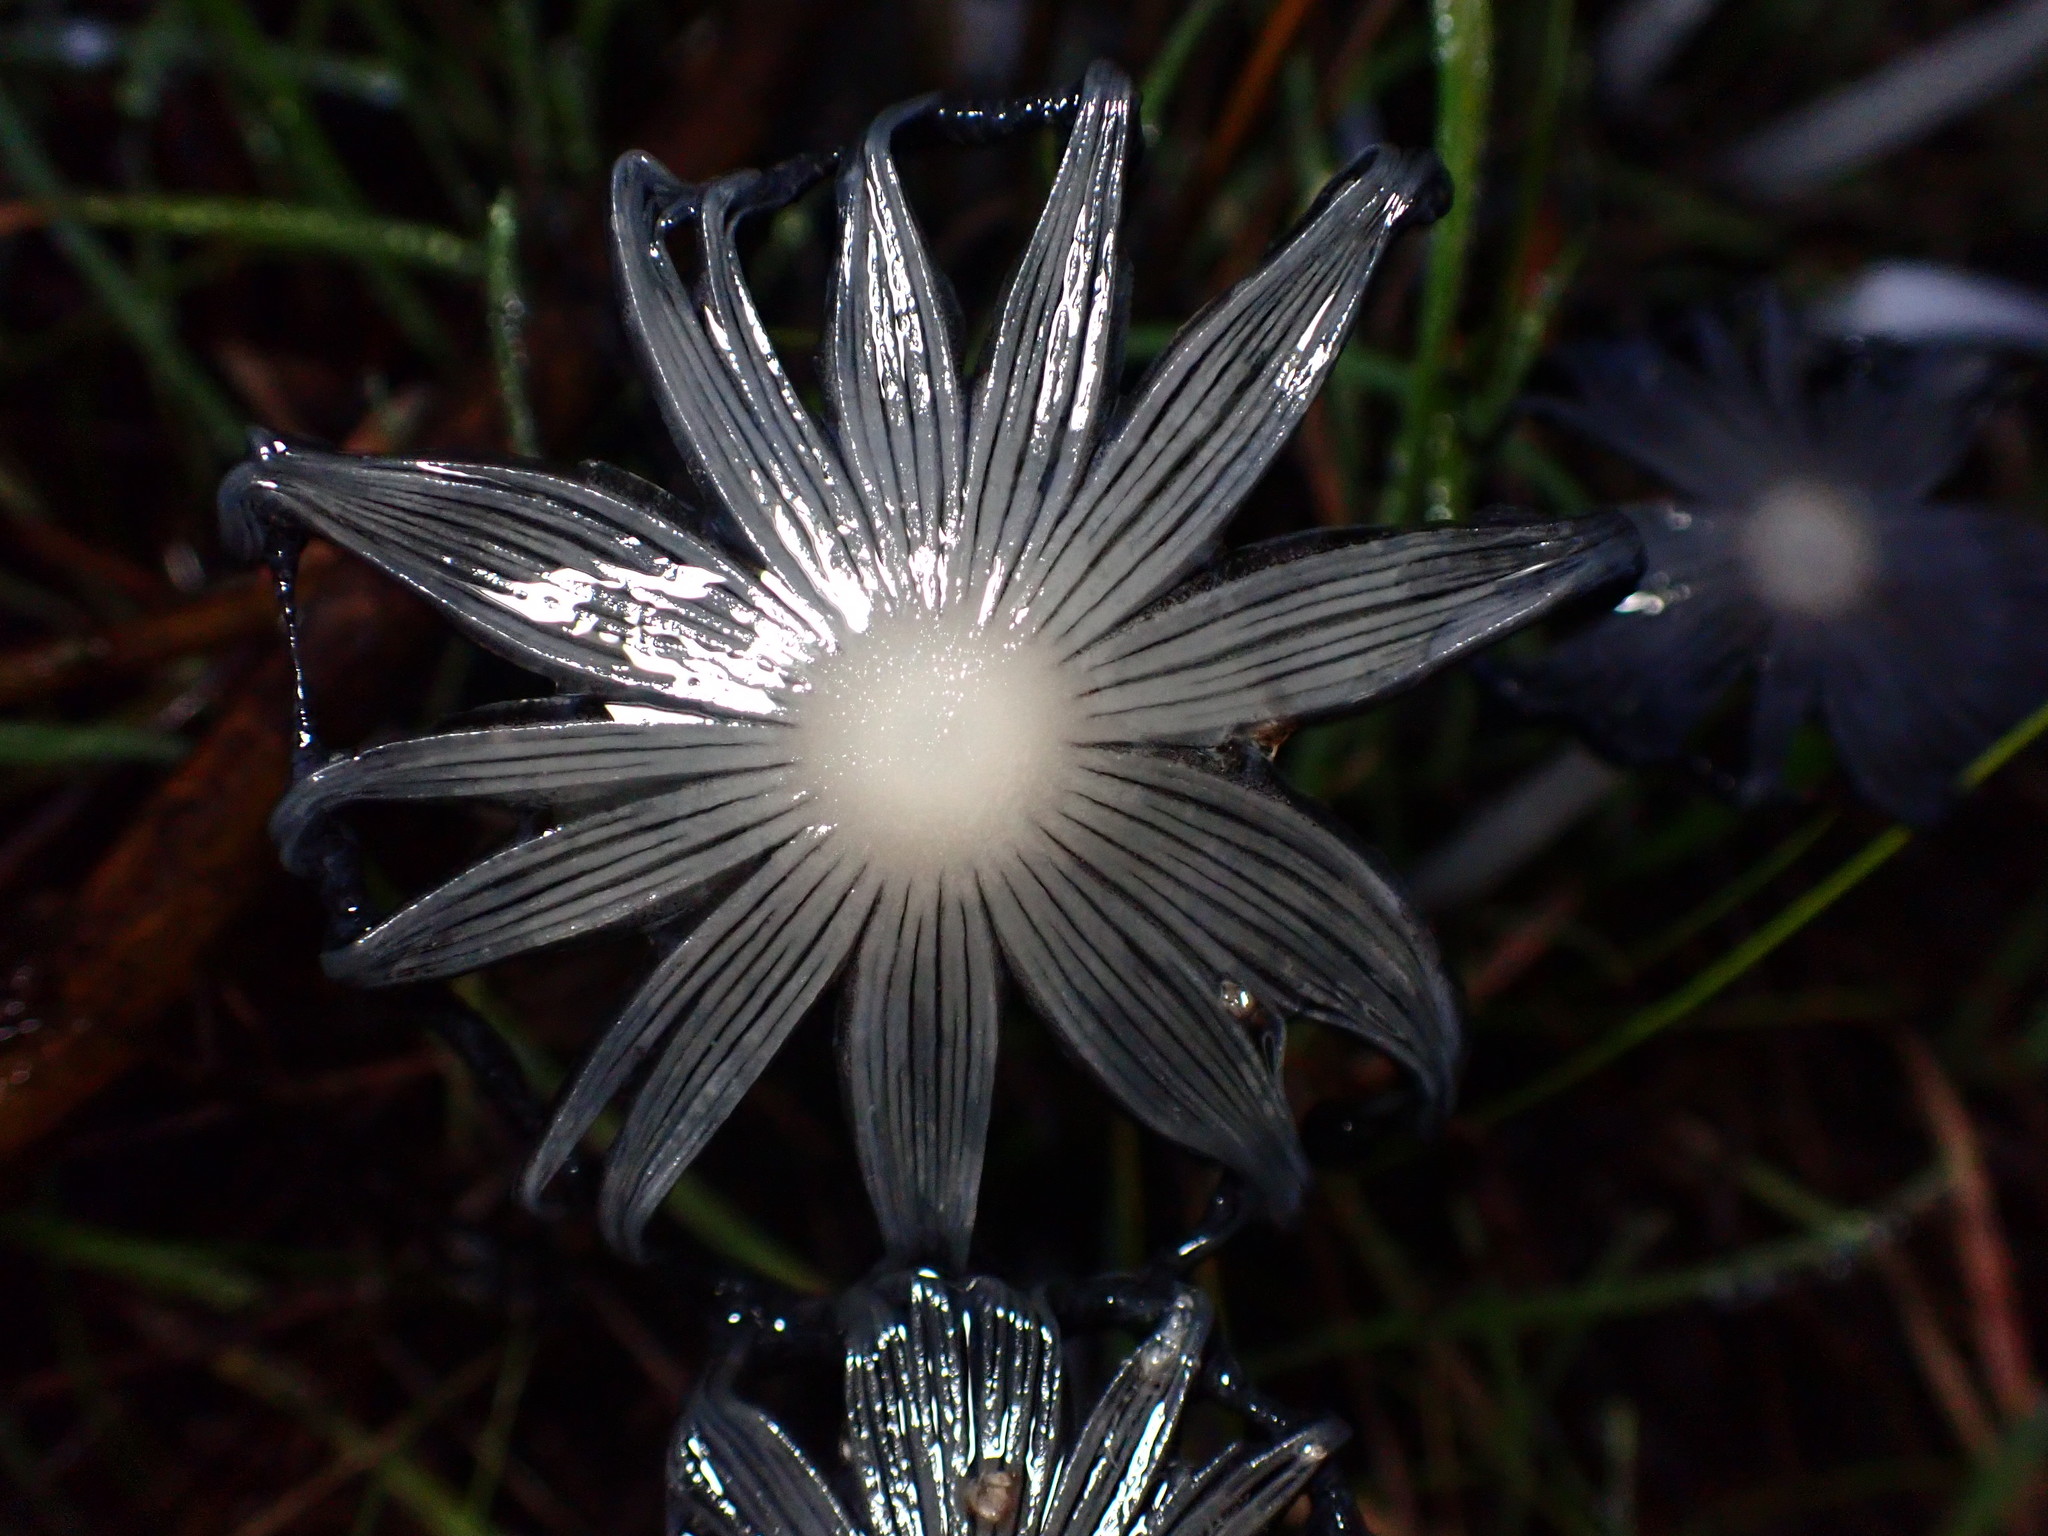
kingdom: Fungi
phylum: Basidiomycota
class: Agaricomycetes
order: Agaricales
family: Psathyrellaceae
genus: Coprinopsis
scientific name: Coprinopsis lagopus
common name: Hare'sfoot inkcap
